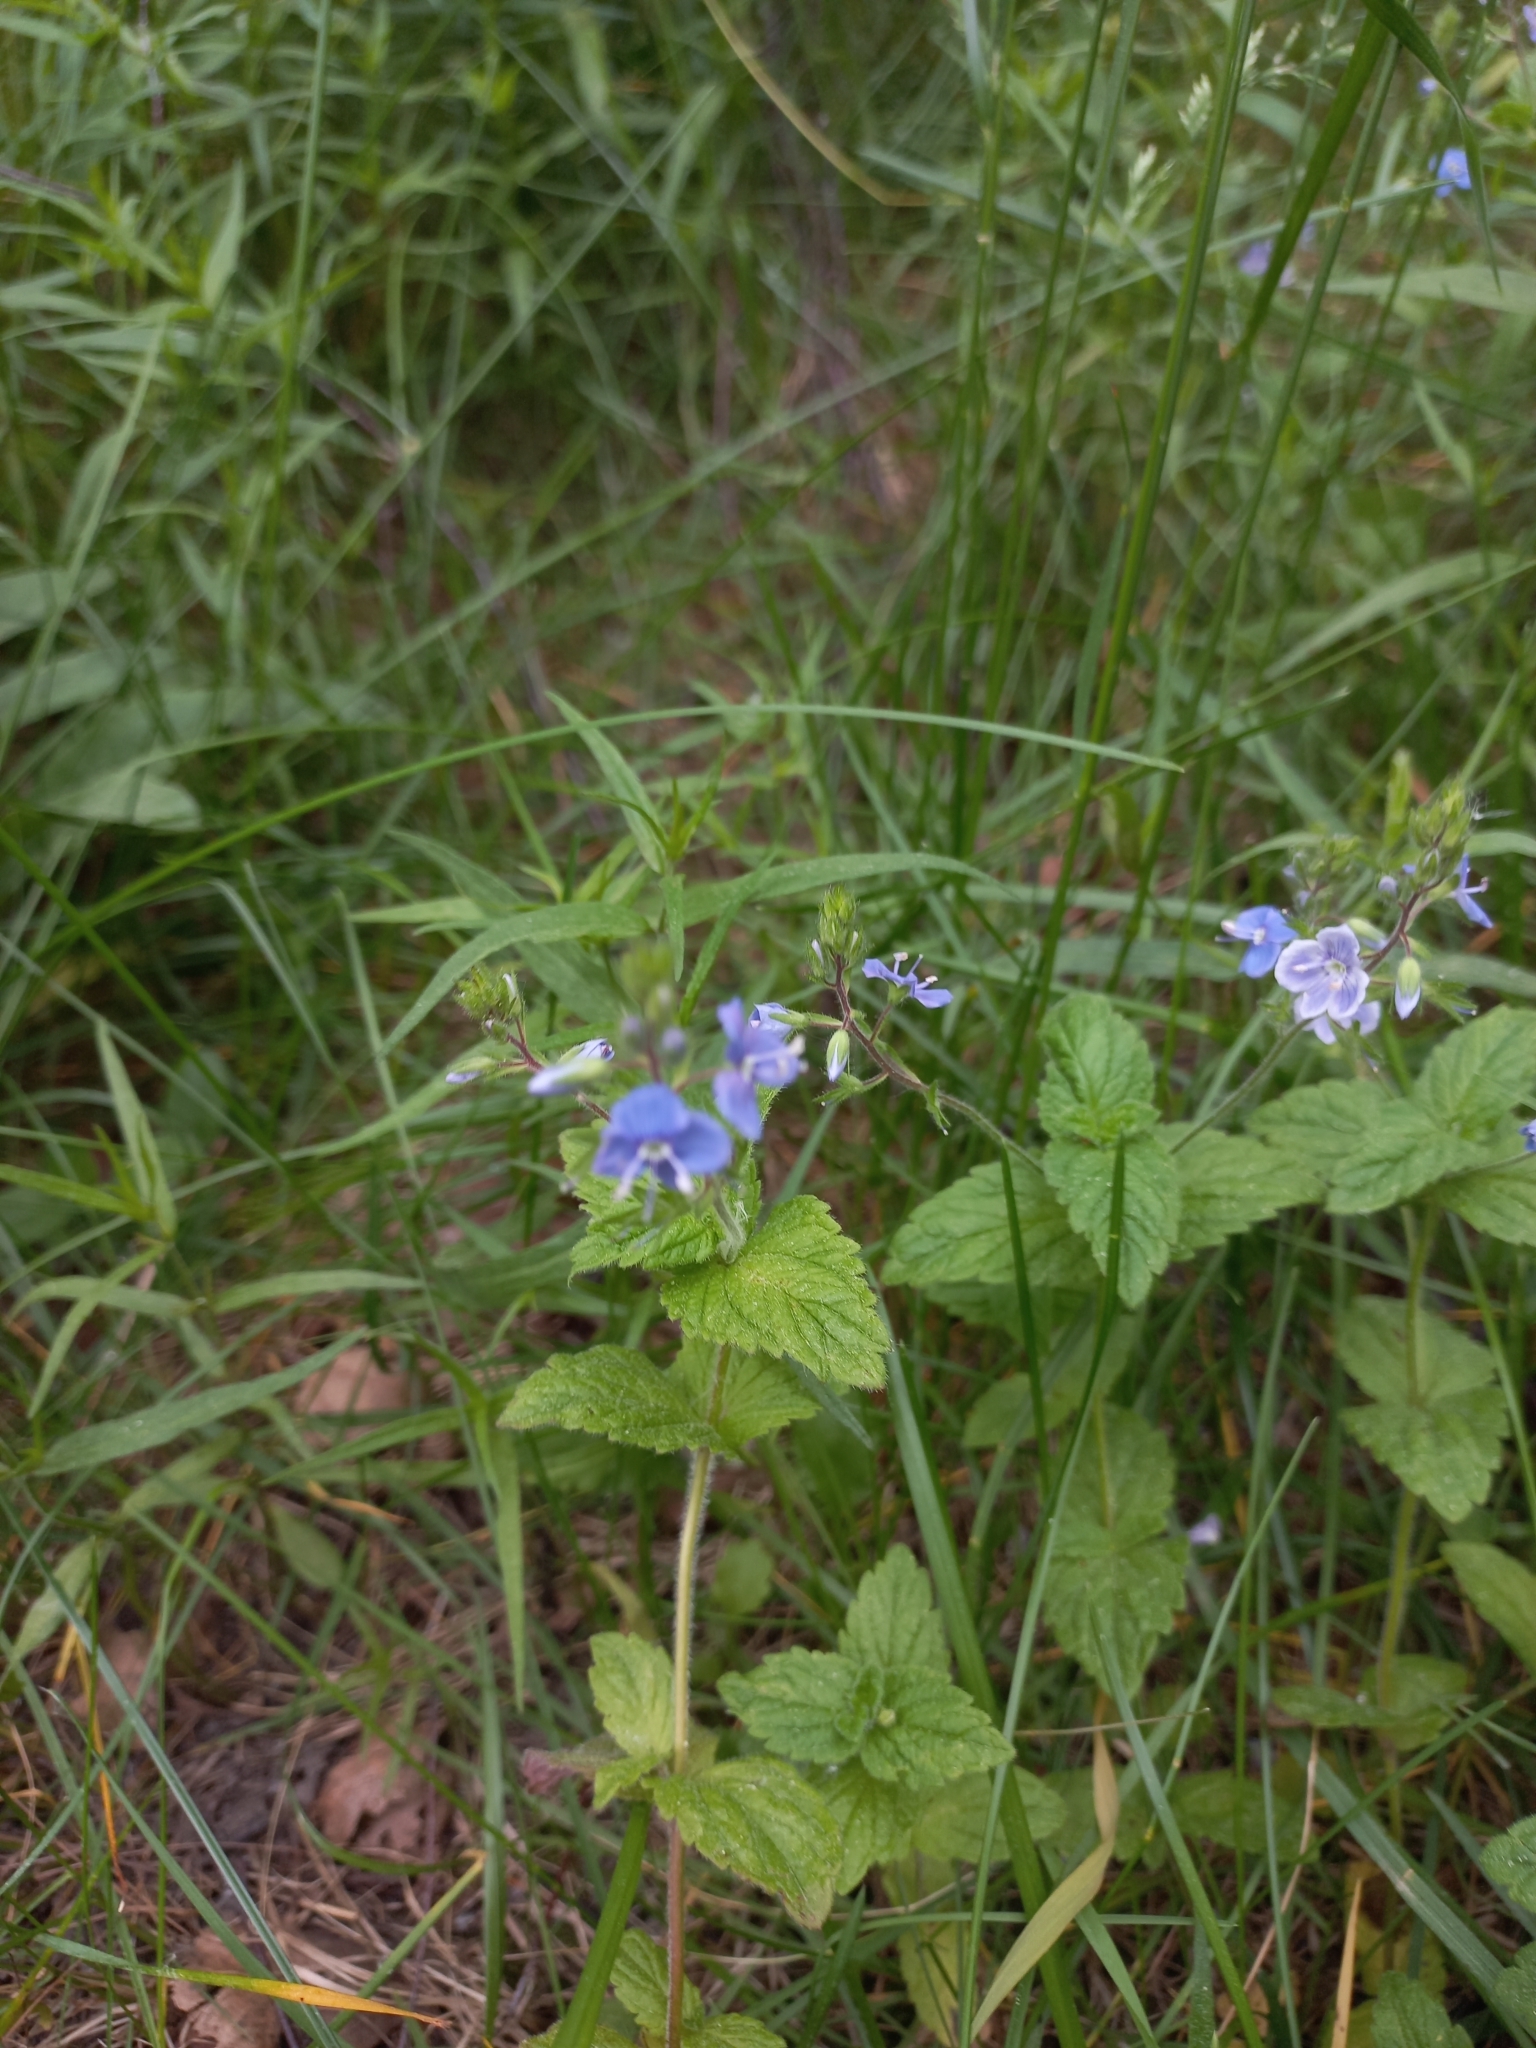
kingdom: Plantae
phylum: Tracheophyta
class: Magnoliopsida
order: Lamiales
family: Plantaginaceae
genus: Veronica
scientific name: Veronica chamaedrys
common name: Germander speedwell
